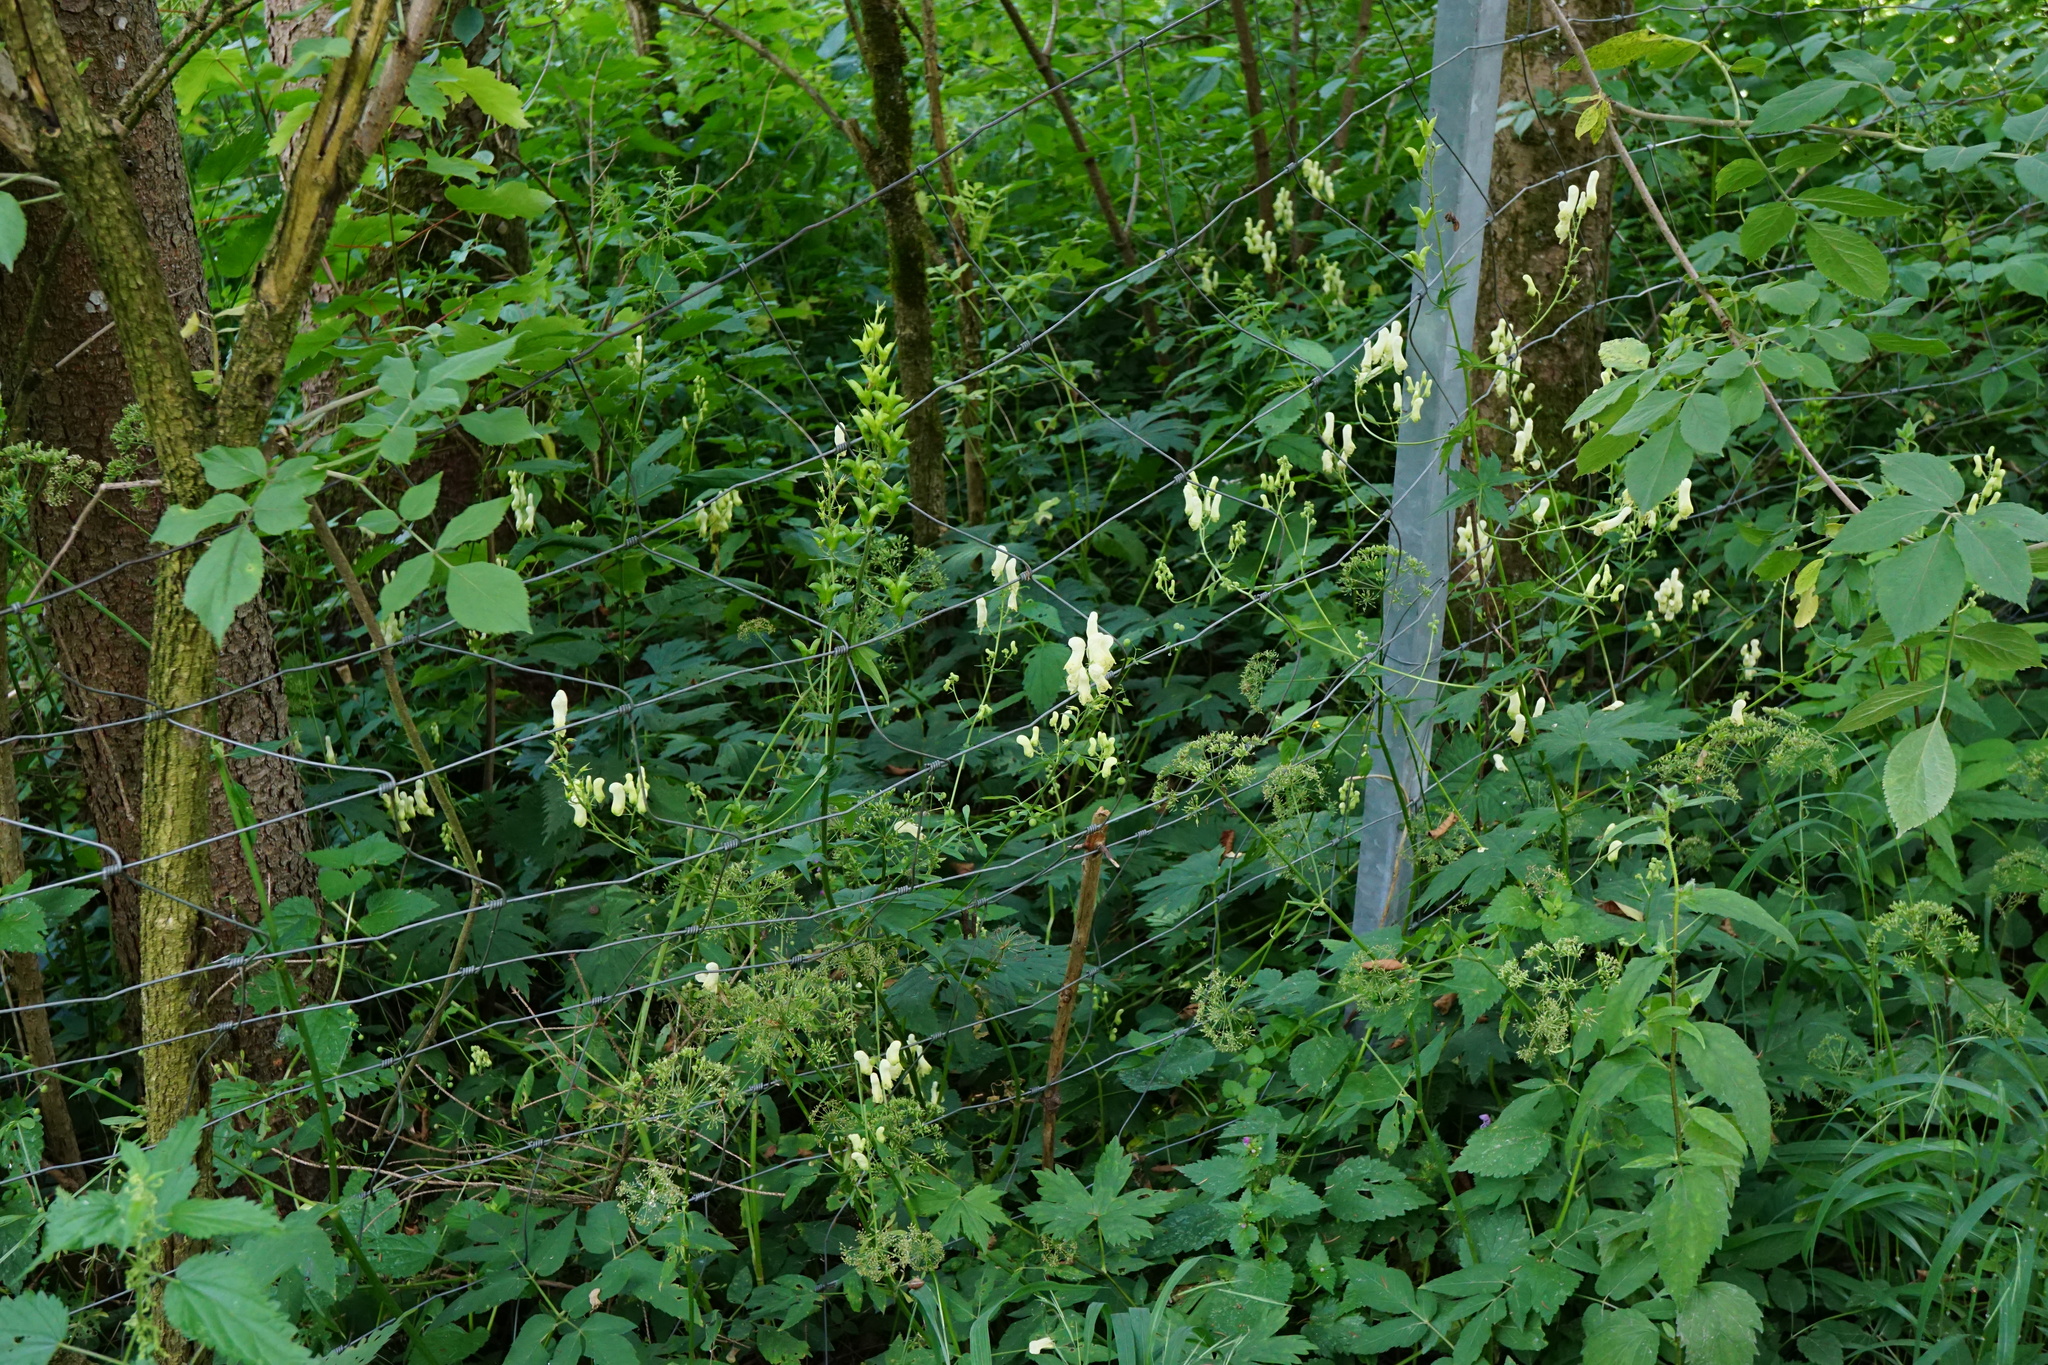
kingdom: Plantae
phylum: Tracheophyta
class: Magnoliopsida
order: Ranunculales
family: Ranunculaceae
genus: Aconitum
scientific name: Aconitum lycoctonum
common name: Wolf's-bane
